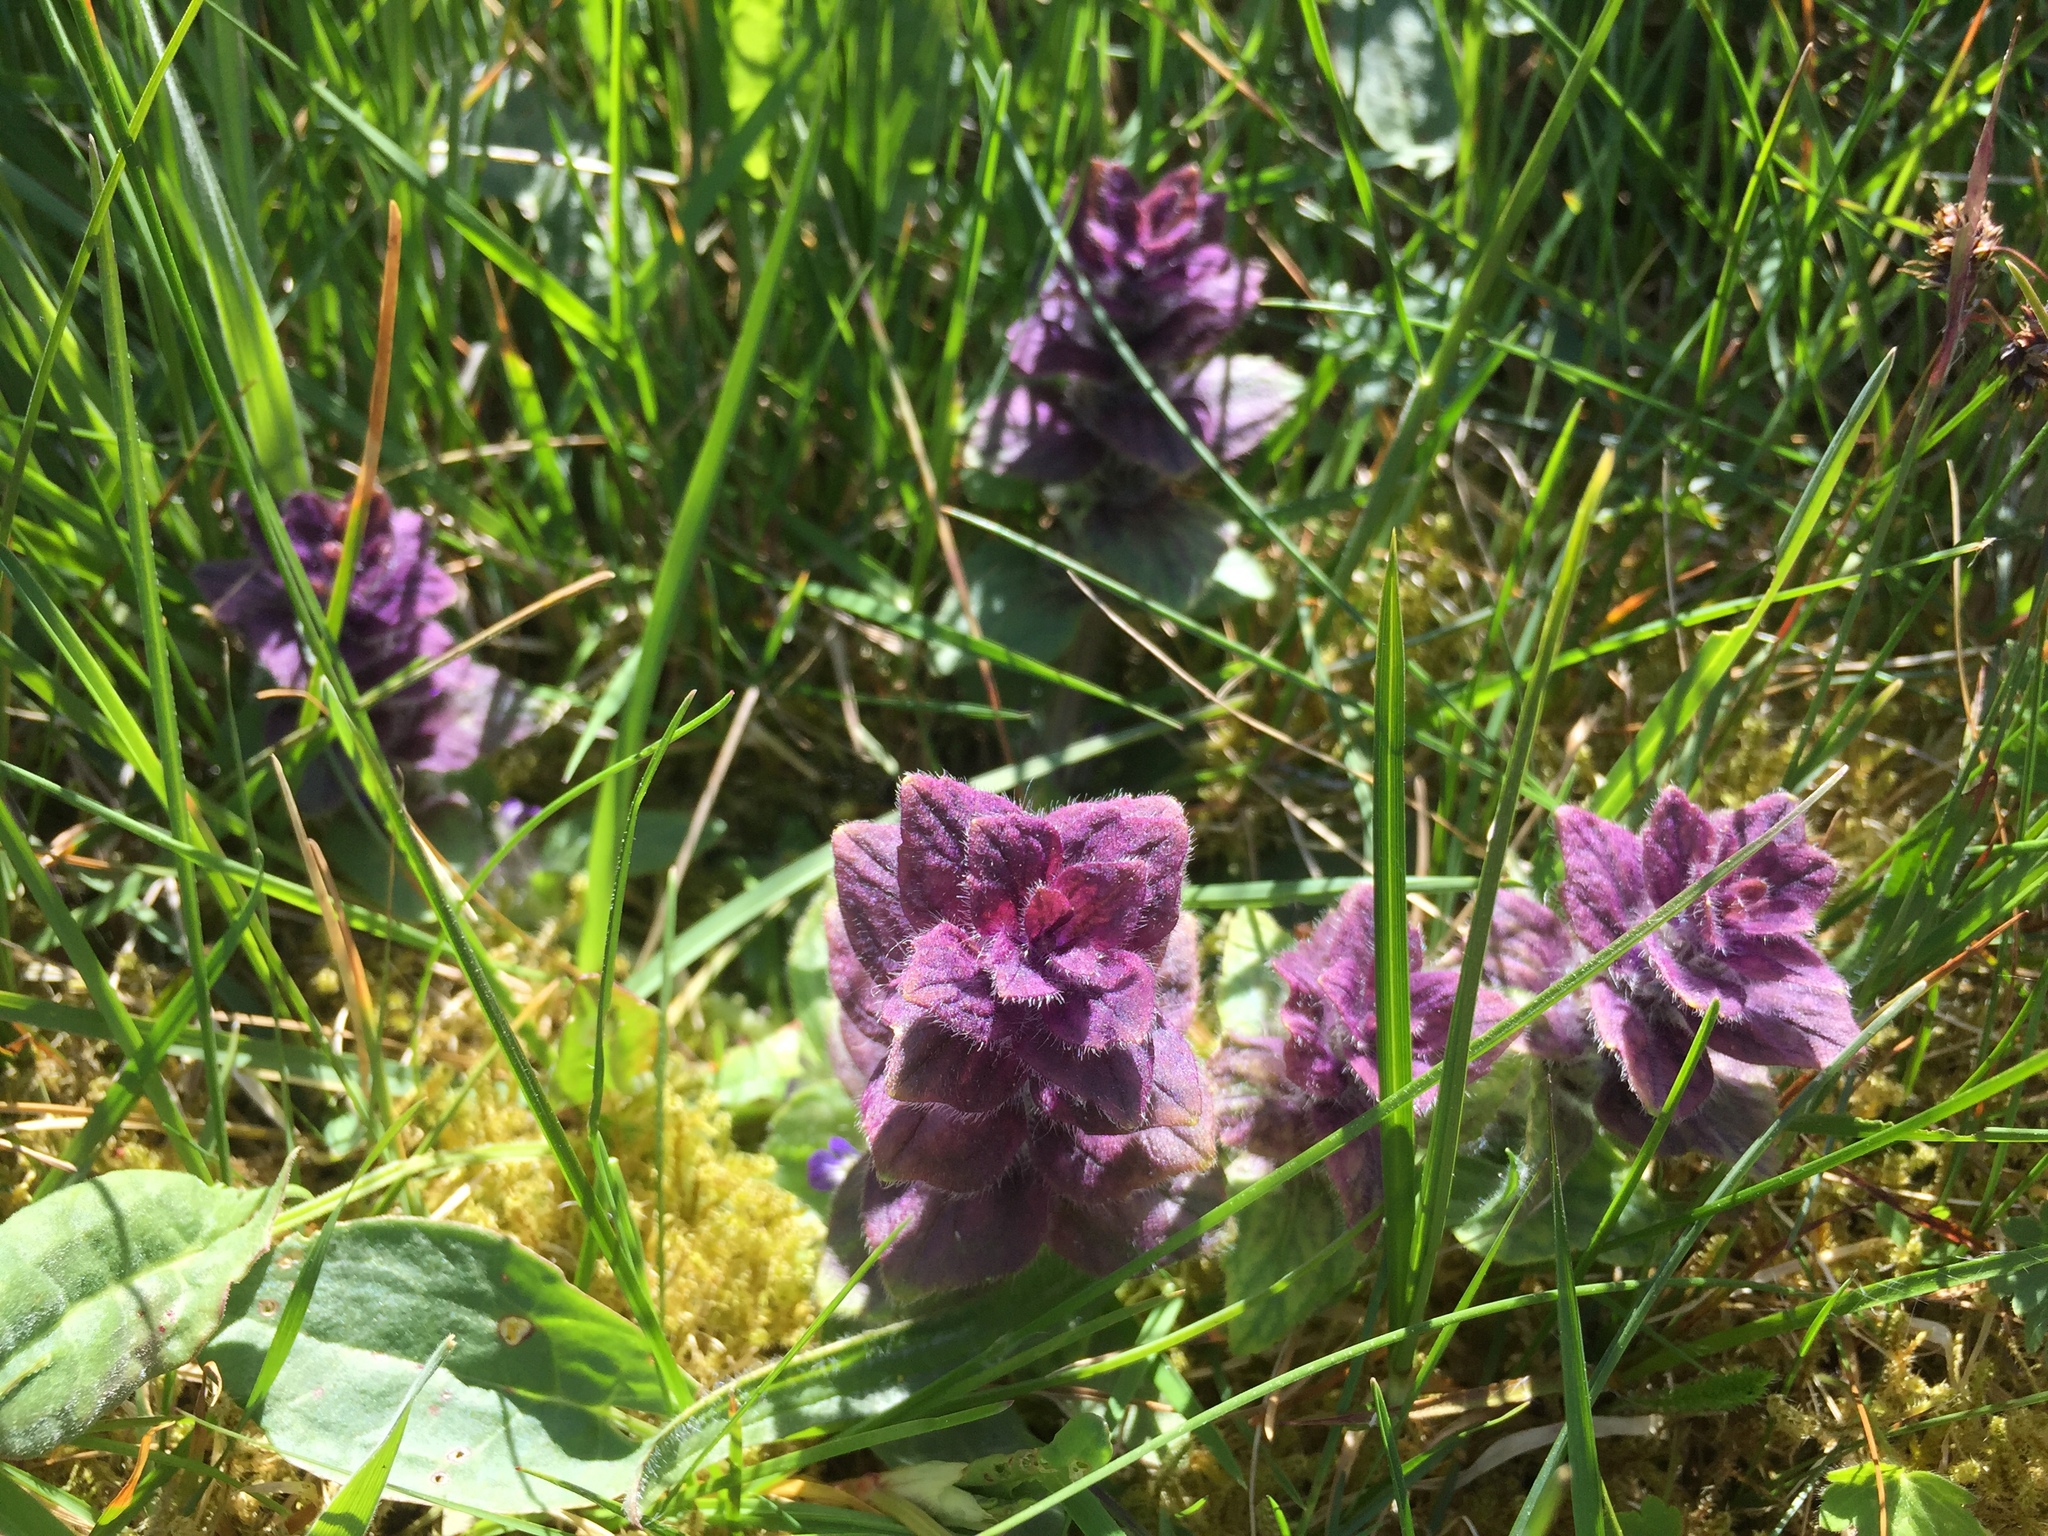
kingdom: Plantae
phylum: Tracheophyta
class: Magnoliopsida
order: Lamiales
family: Lamiaceae
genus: Ajuga
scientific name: Ajuga pyramidalis
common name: Pyramid bugle
